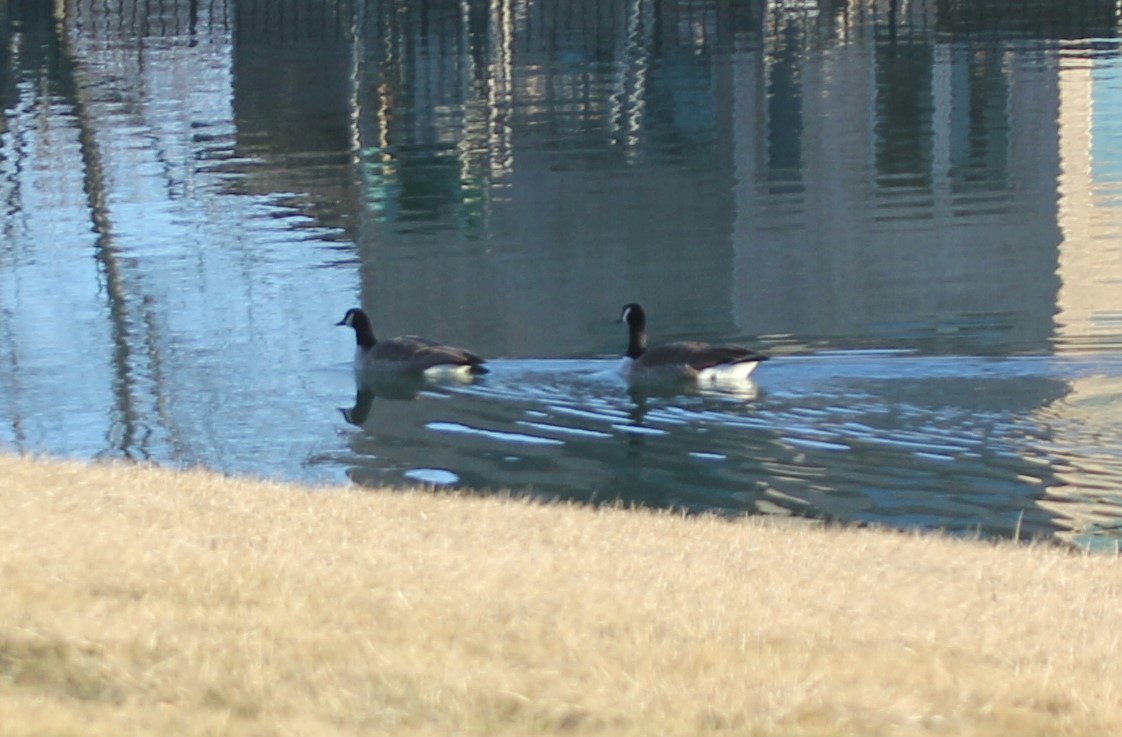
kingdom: Animalia
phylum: Chordata
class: Aves
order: Anseriformes
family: Anatidae
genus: Branta
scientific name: Branta canadensis
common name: Canada goose
